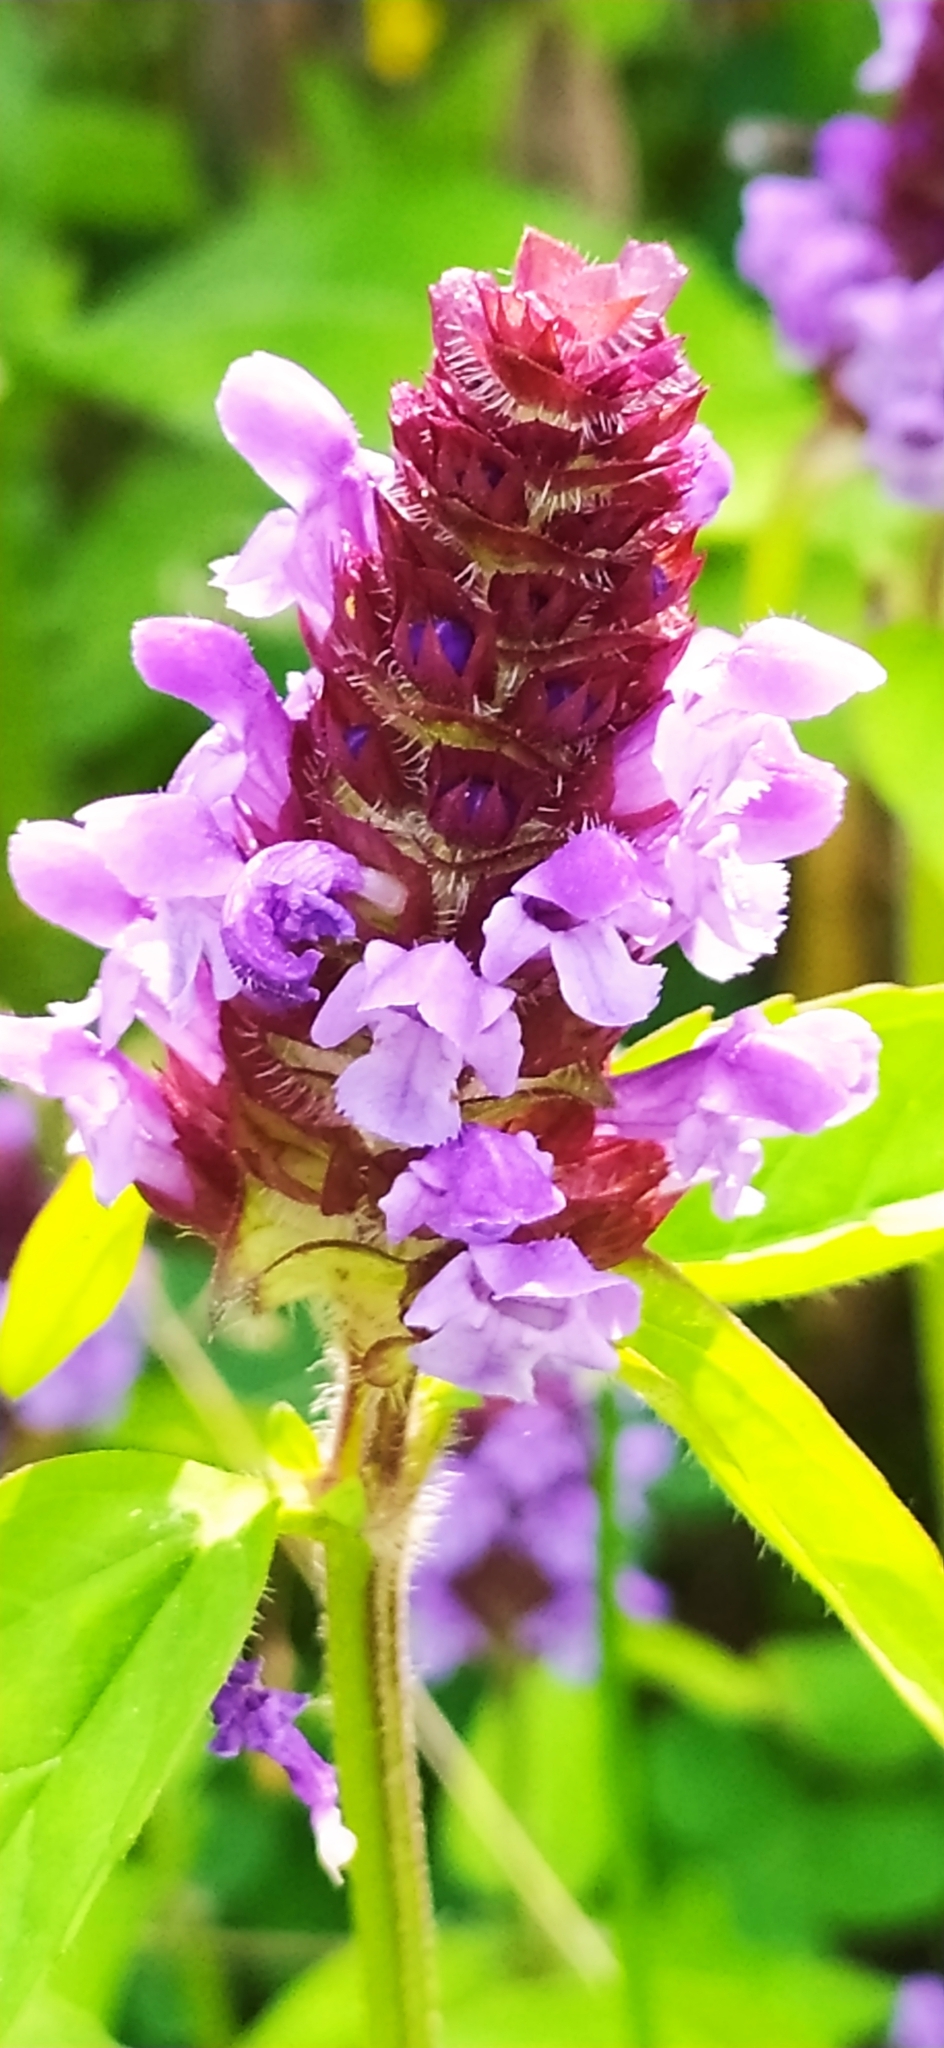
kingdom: Plantae
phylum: Tracheophyta
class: Magnoliopsida
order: Lamiales
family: Lamiaceae
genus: Prunella
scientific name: Prunella vulgaris
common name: Heal-all
